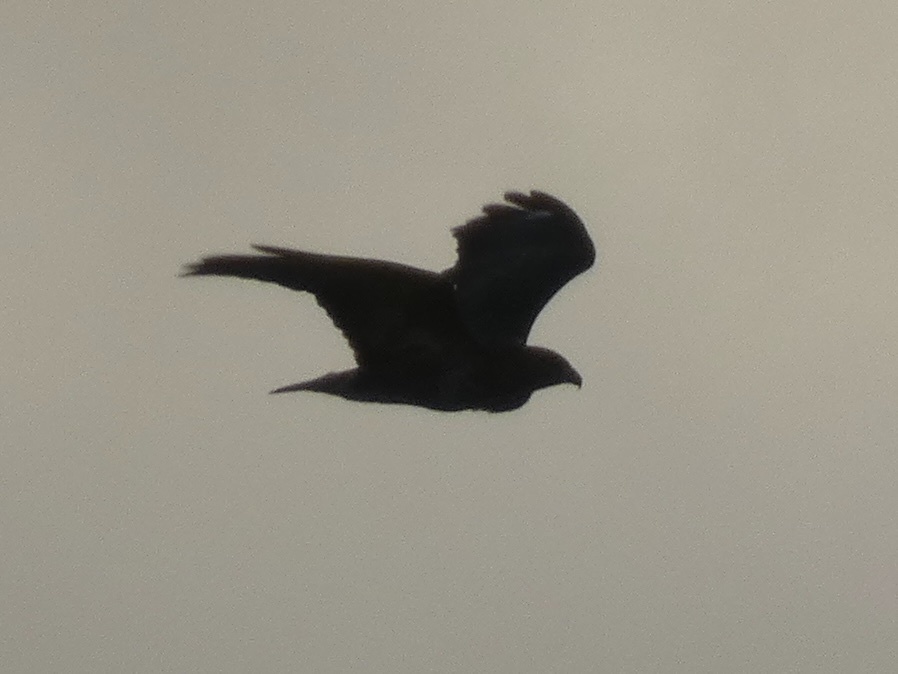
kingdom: Animalia
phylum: Chordata
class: Aves
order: Accipitriformes
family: Accipitridae
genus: Buteo
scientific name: Buteo buteo
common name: Common buzzard
